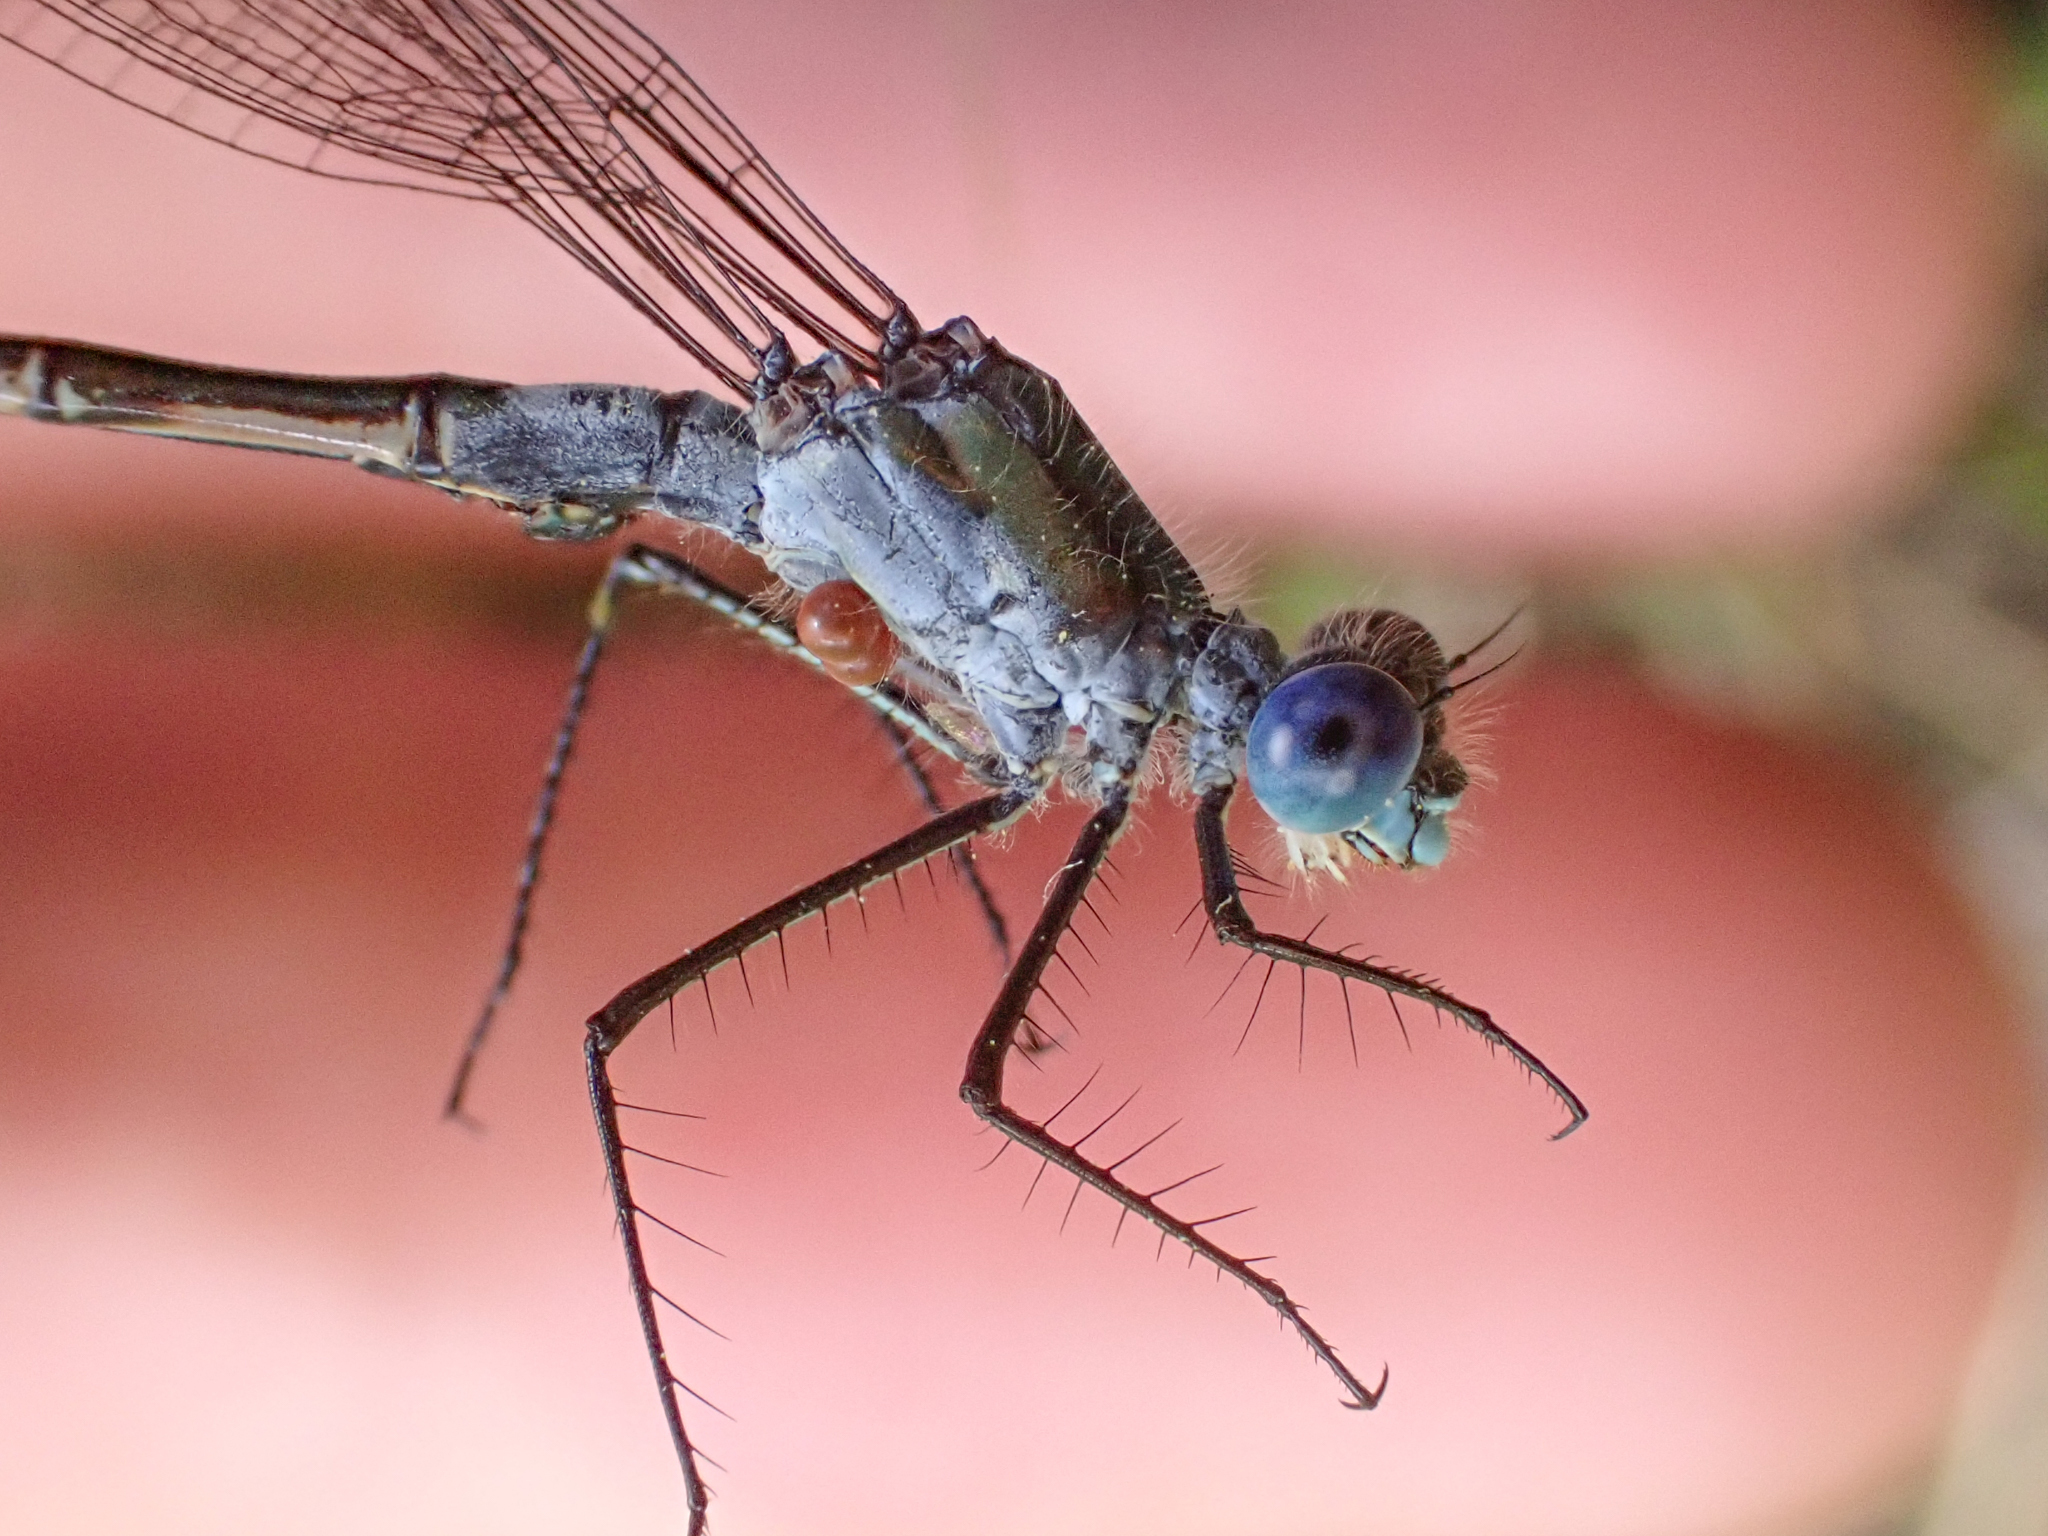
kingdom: Animalia
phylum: Arthropoda
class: Insecta
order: Odonata
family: Lestidae
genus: Lestes
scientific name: Lestes dryas
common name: Scarce emerald damselfly
